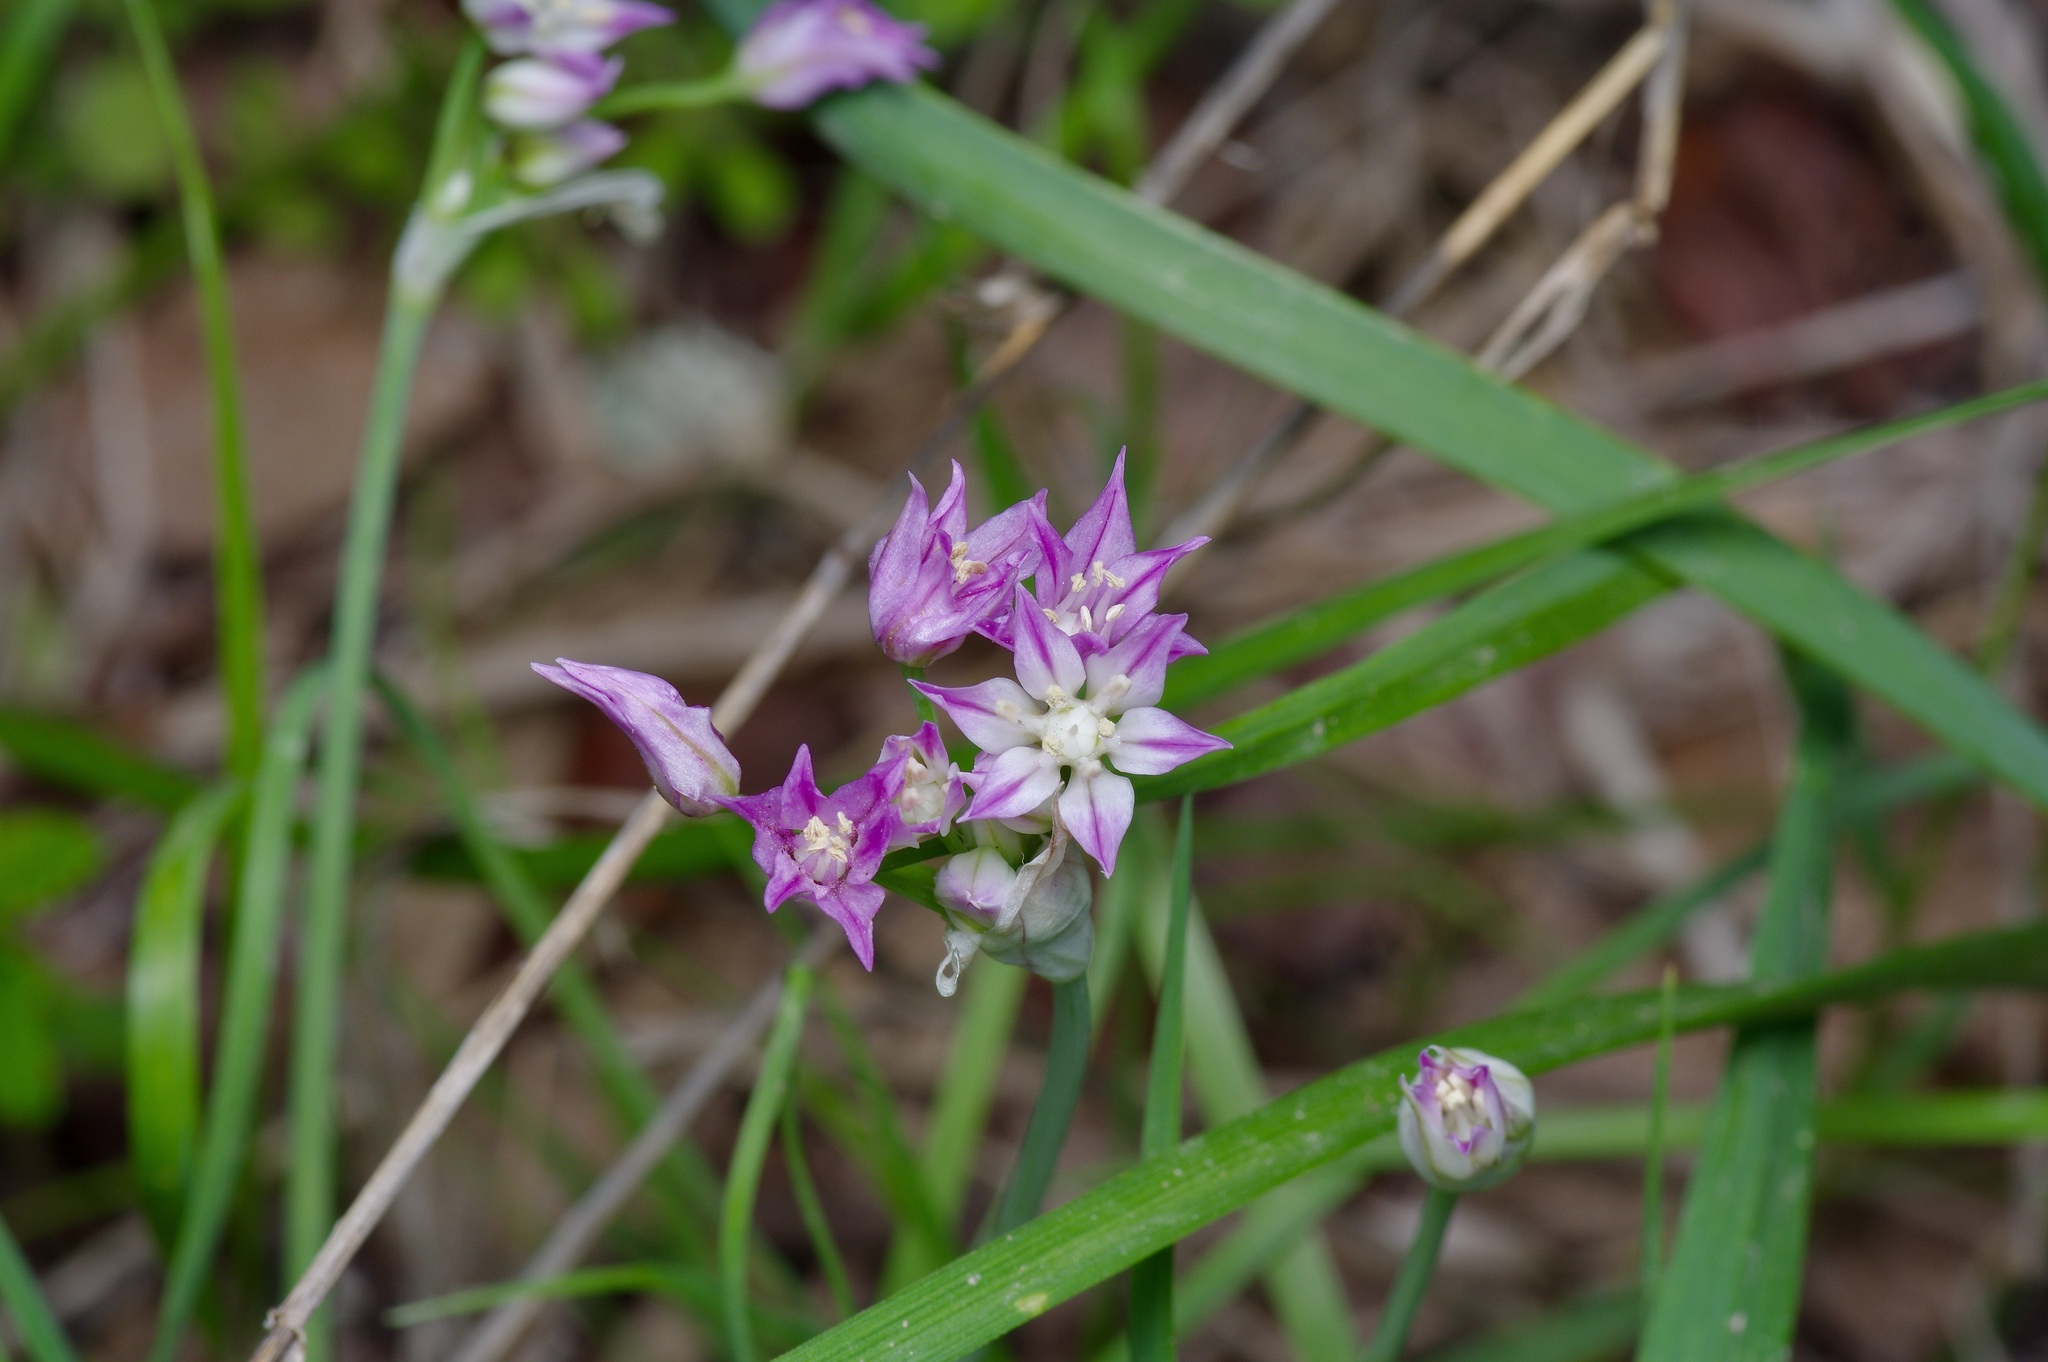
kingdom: Plantae
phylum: Tracheophyta
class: Liliopsida
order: Asparagales
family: Amaryllidaceae
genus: Allium
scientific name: Allium drummondii
